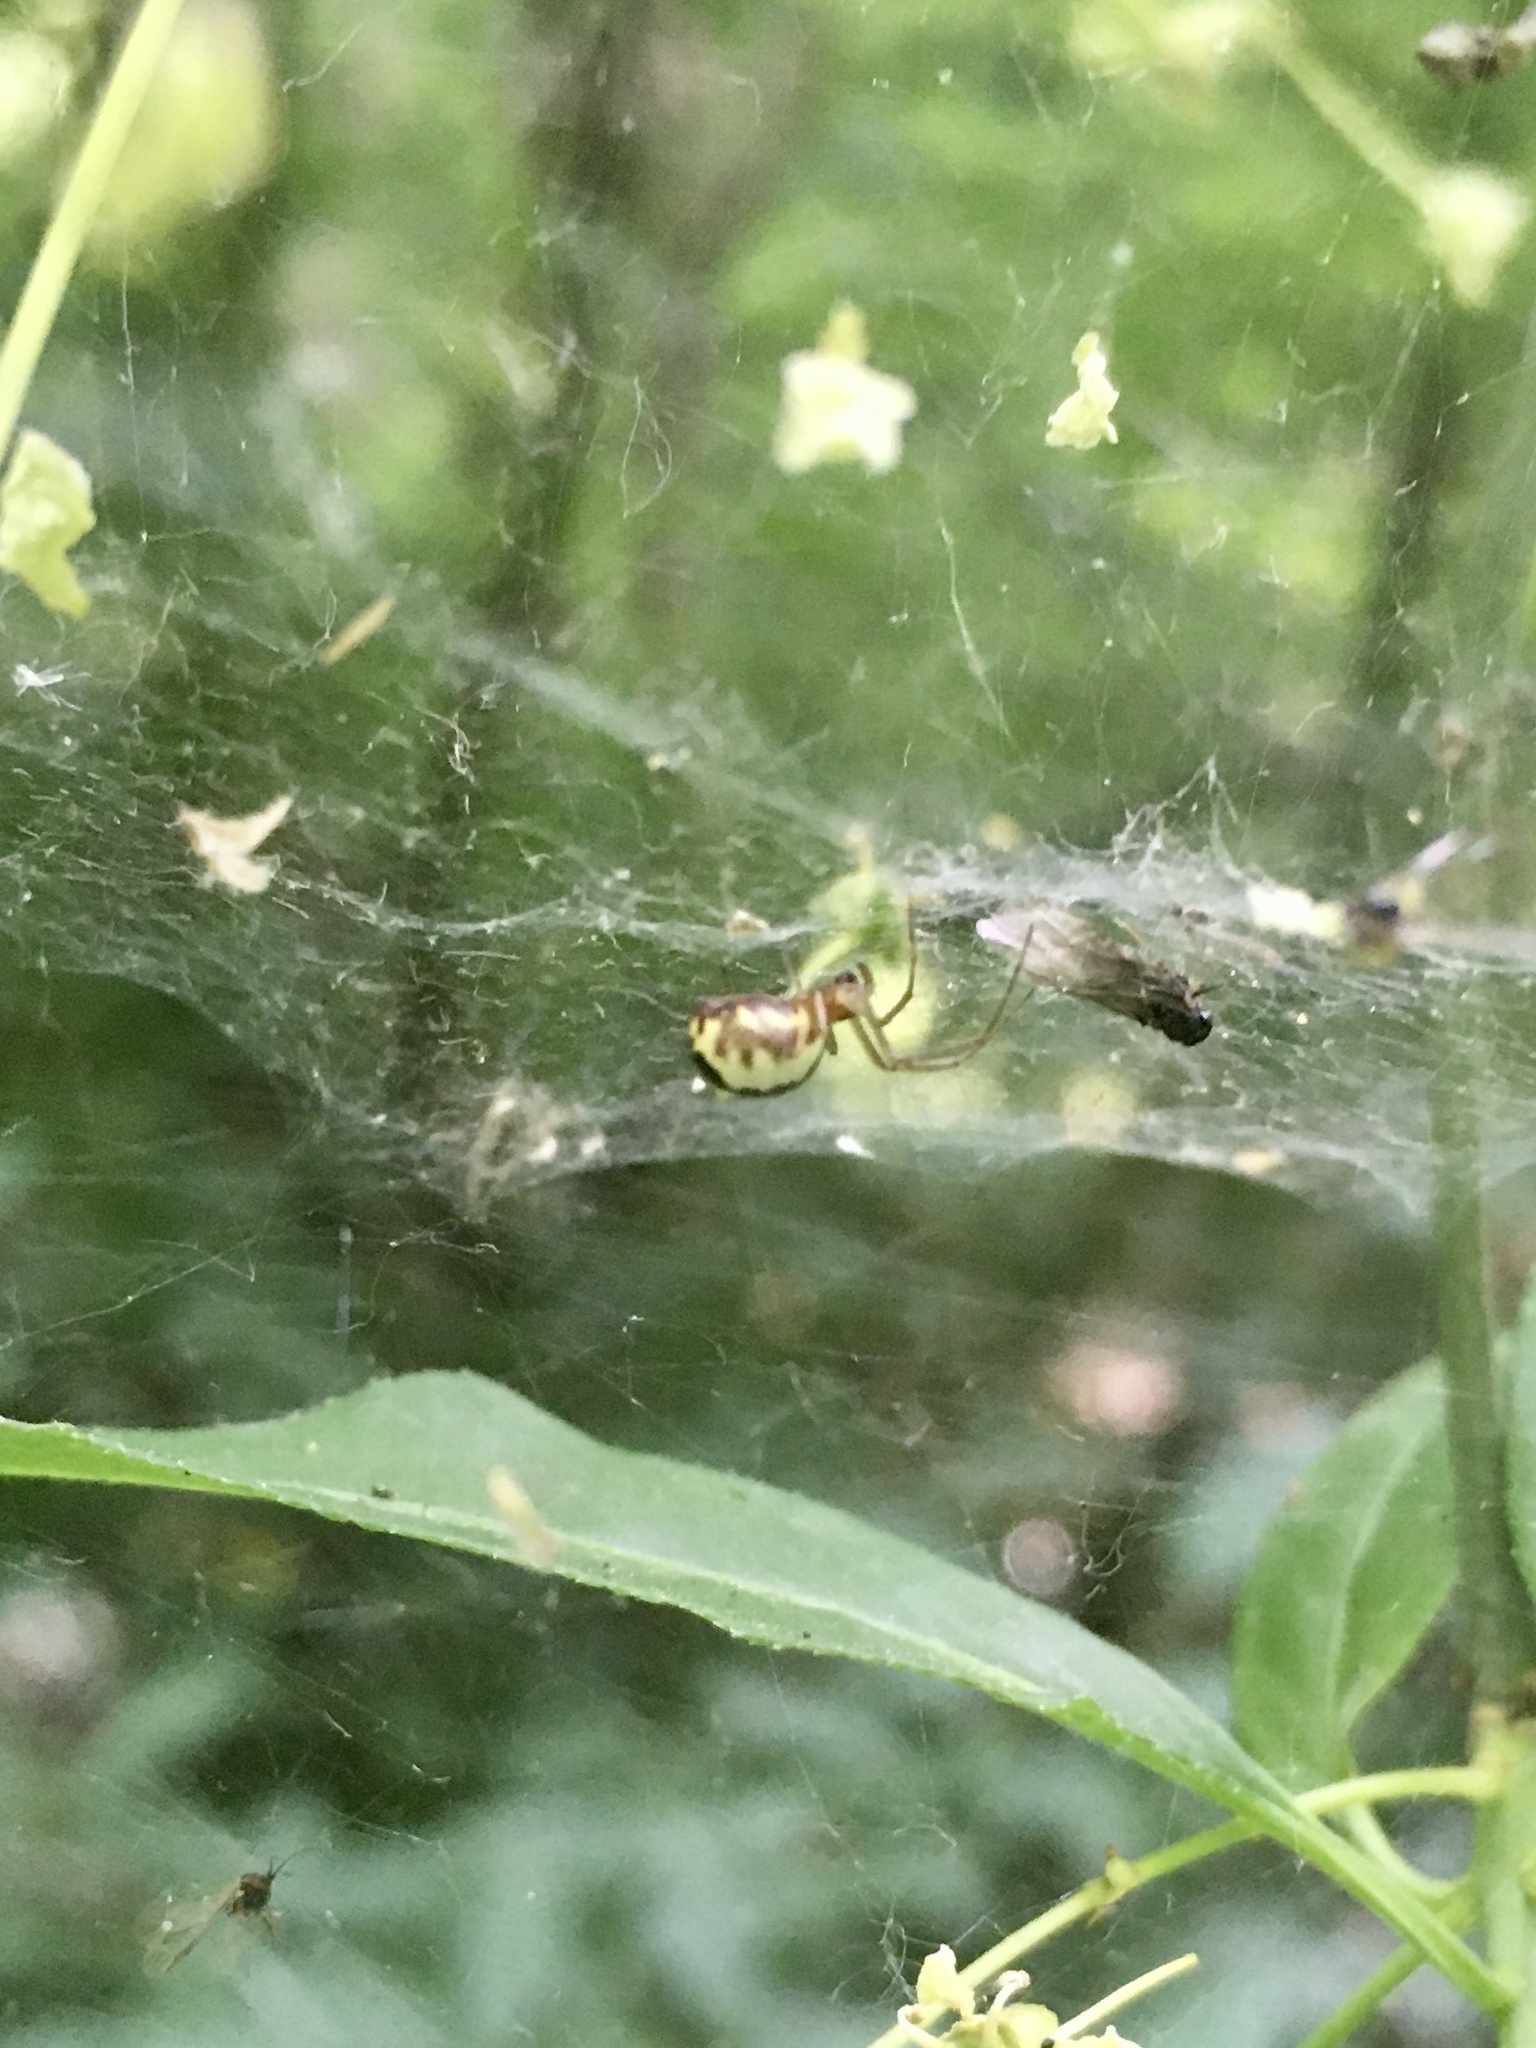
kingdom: Animalia
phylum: Arthropoda
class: Arachnida
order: Araneae
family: Linyphiidae
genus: Neriene
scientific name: Neriene peltata
